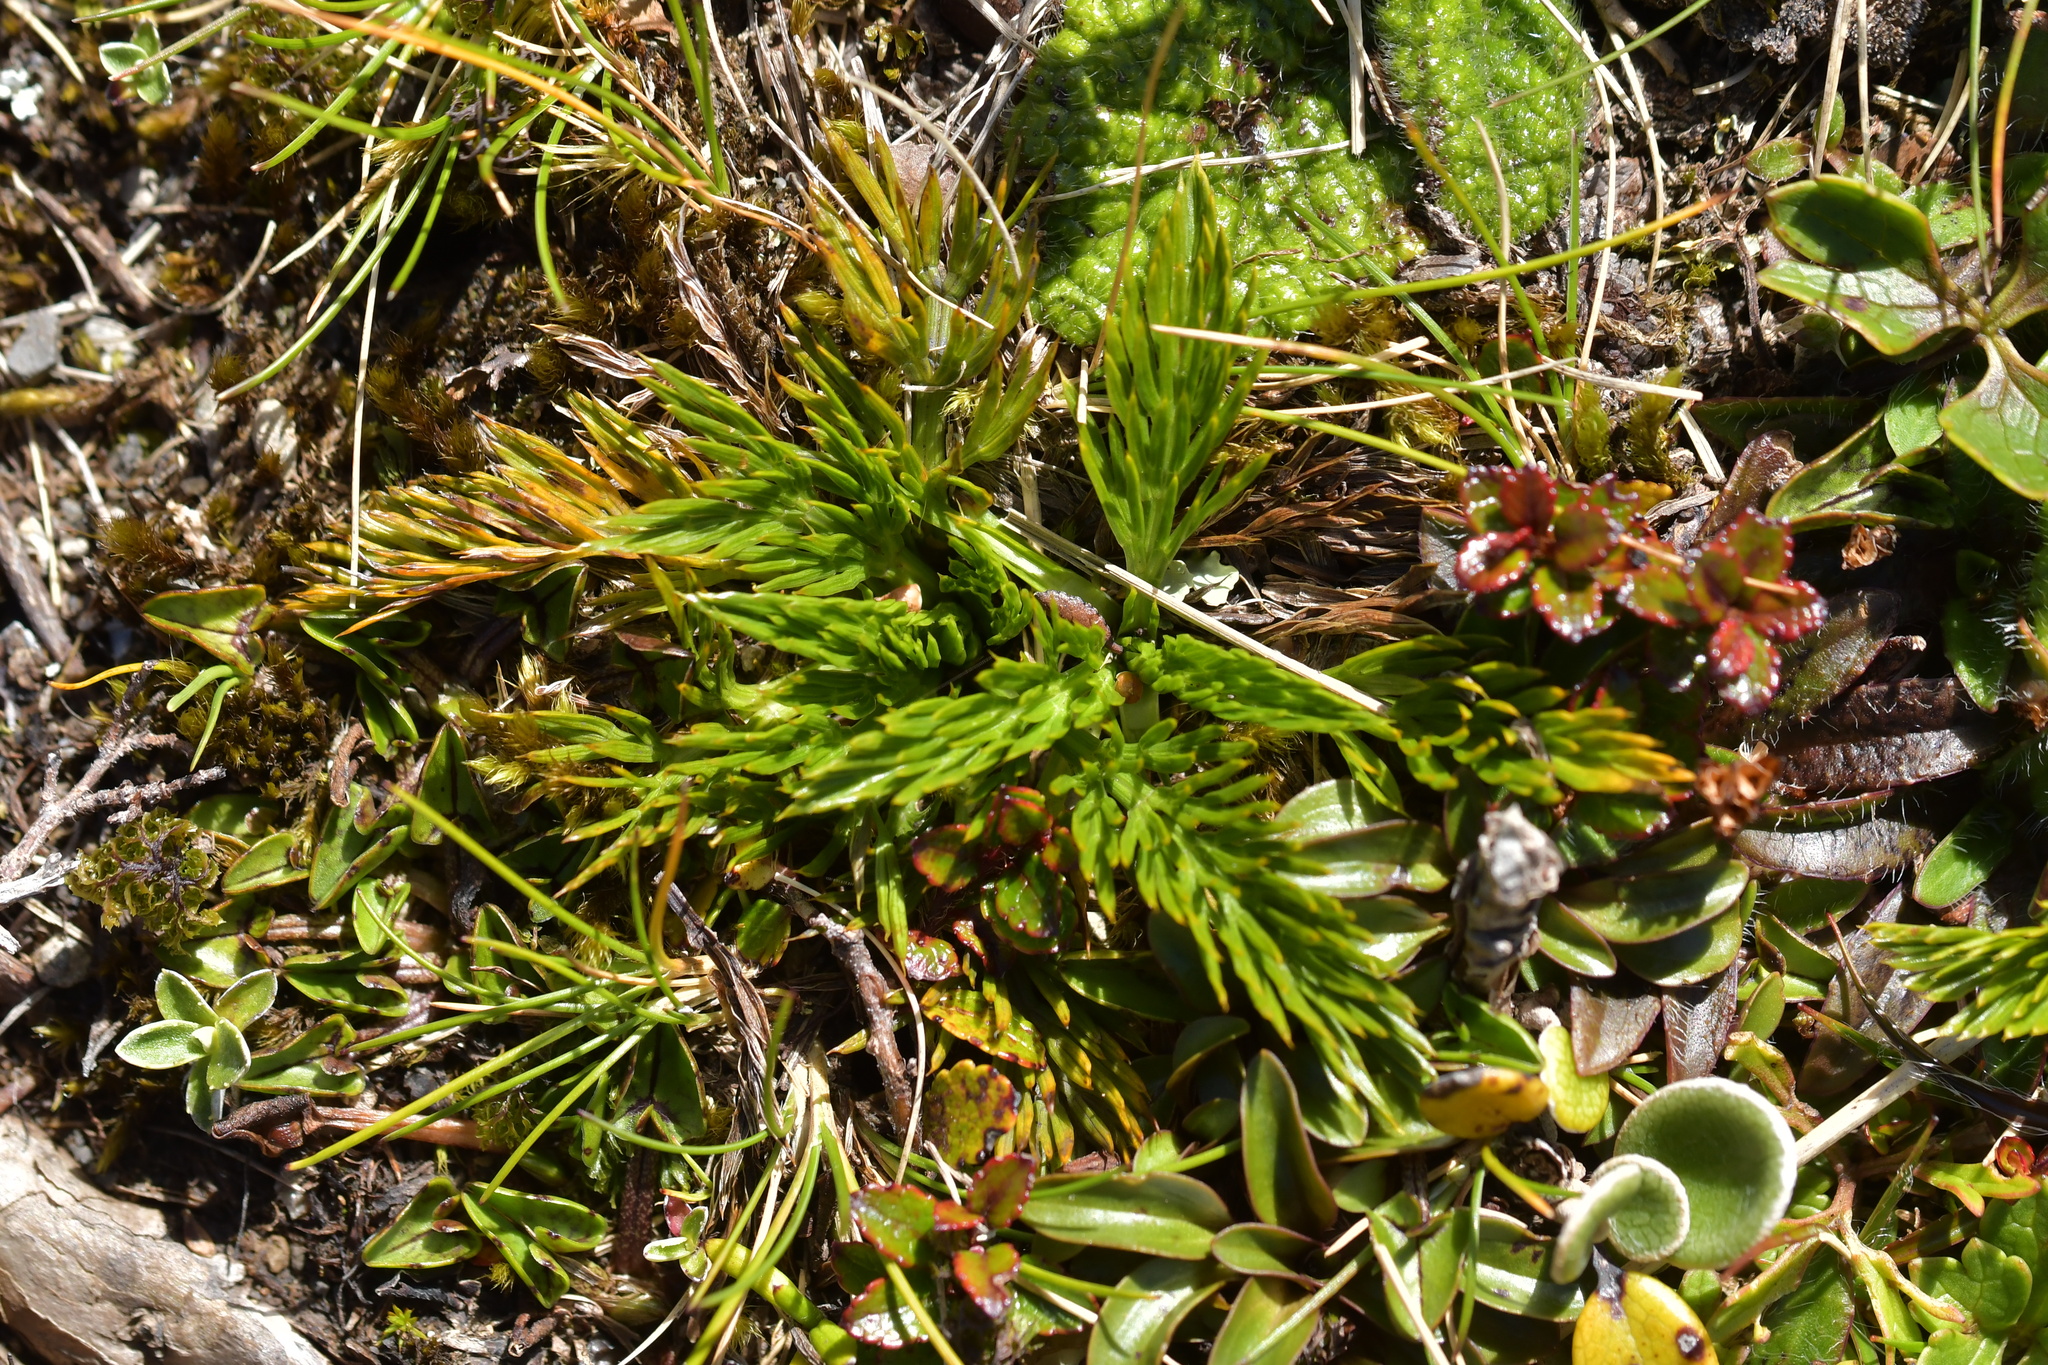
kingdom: Plantae
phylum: Tracheophyta
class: Magnoliopsida
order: Apiales
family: Apiaceae
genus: Aciphylla
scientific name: Aciphylla dissecta
